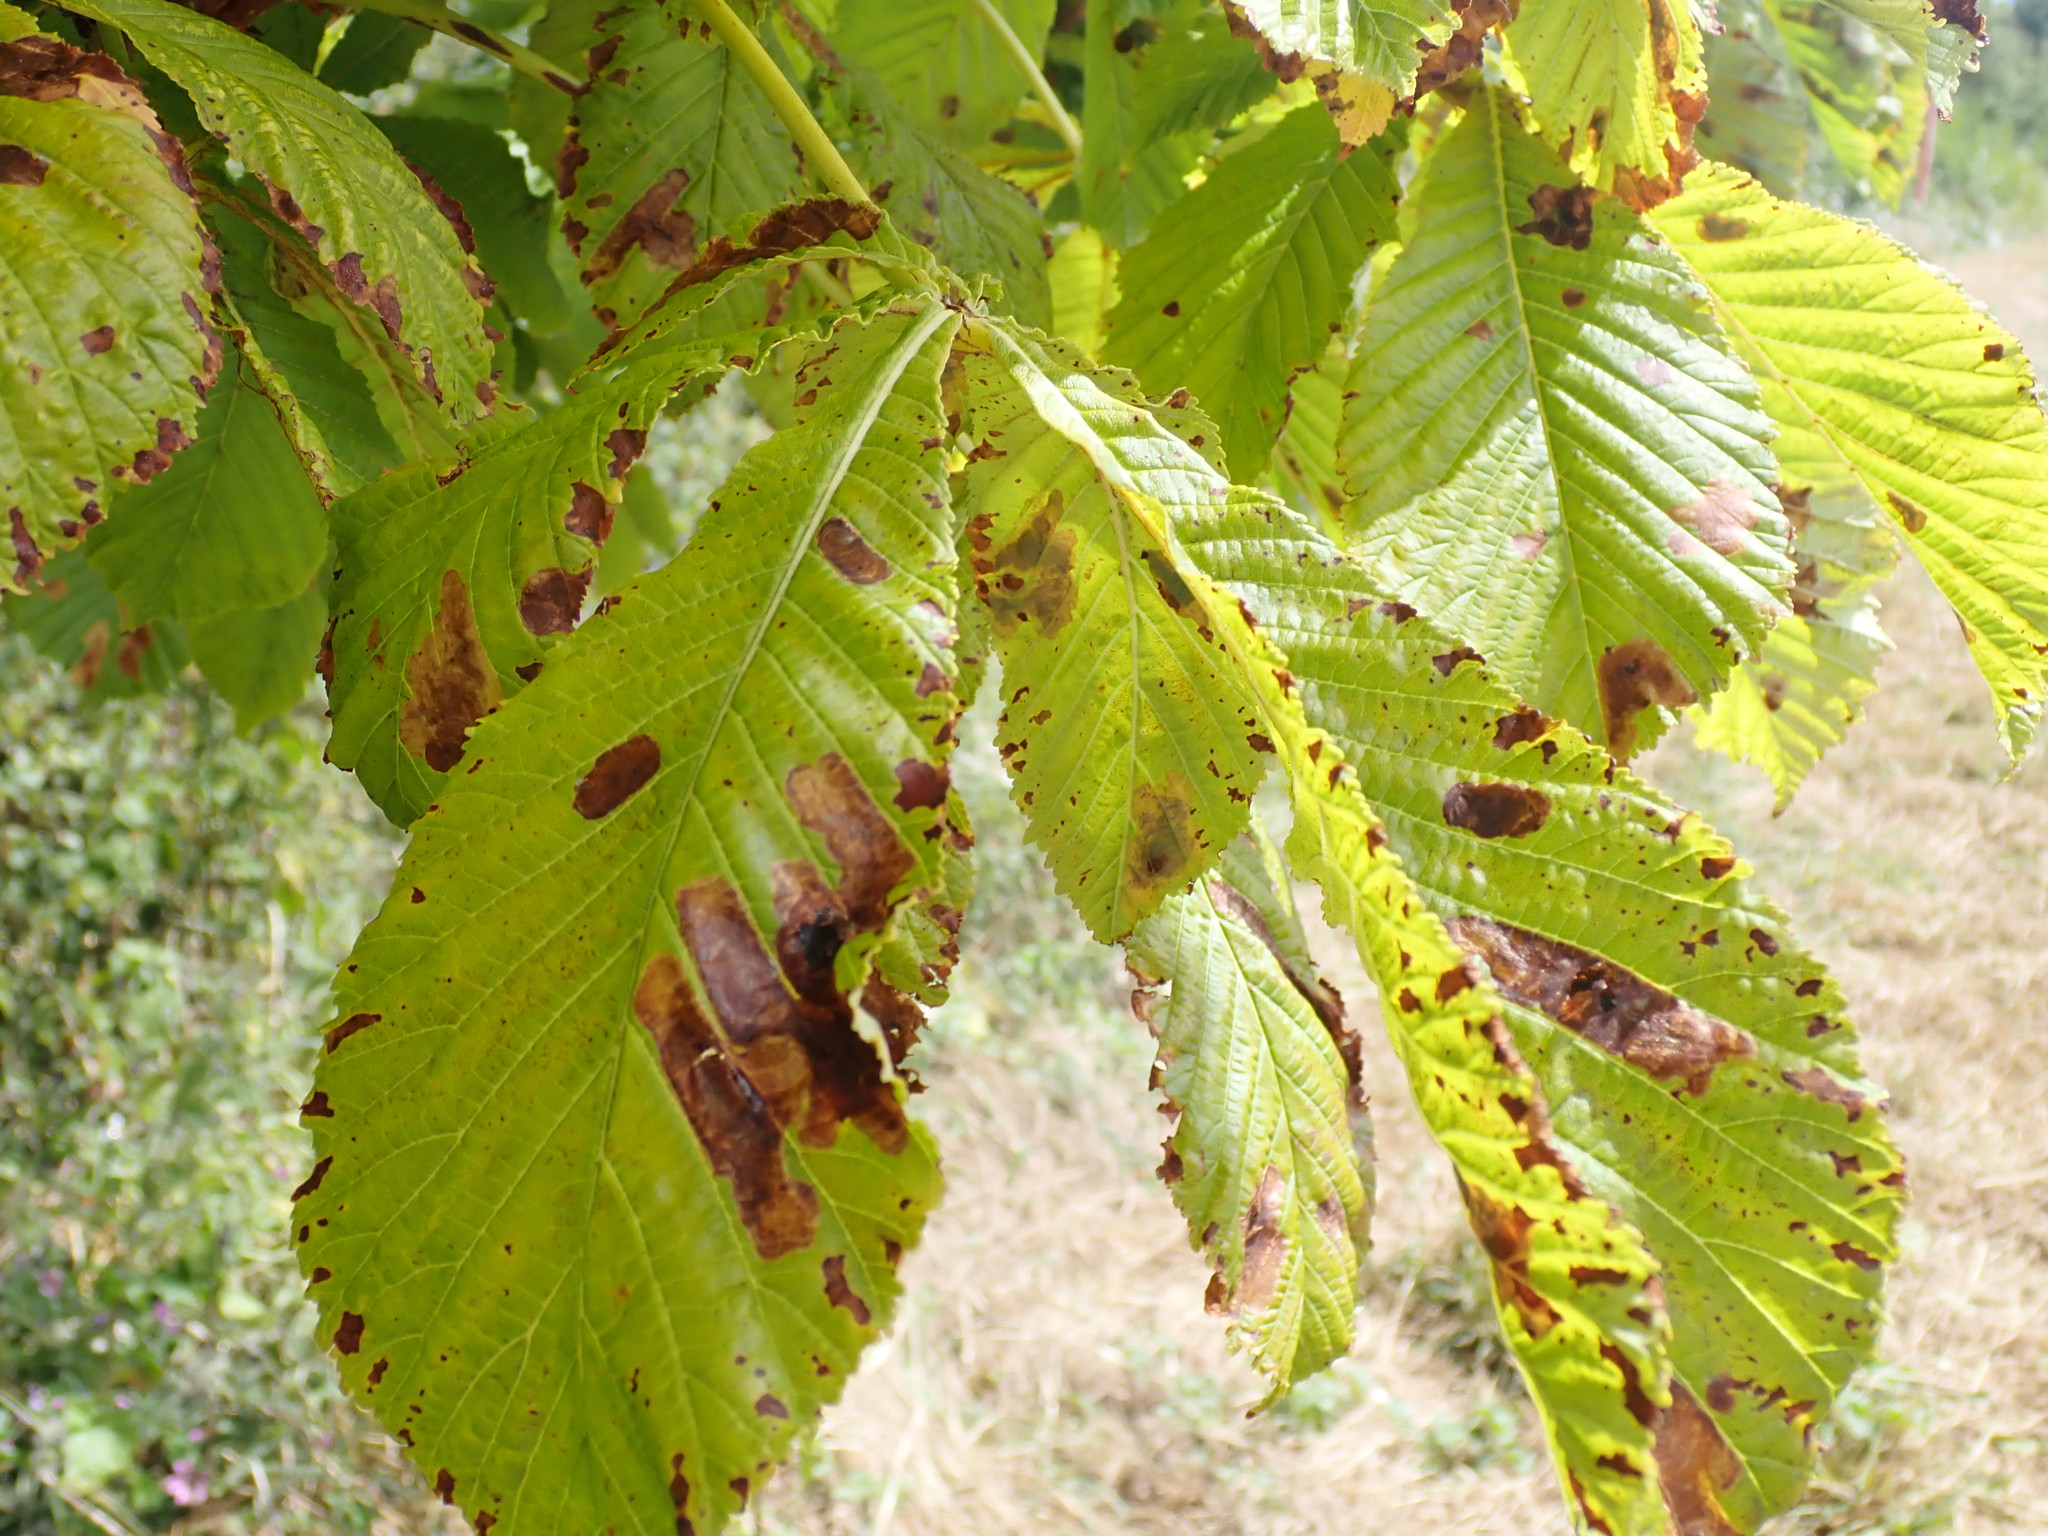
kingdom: Plantae
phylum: Tracheophyta
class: Magnoliopsida
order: Sapindales
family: Sapindaceae
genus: Aesculus
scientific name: Aesculus hippocastanum
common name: Horse-chestnut
